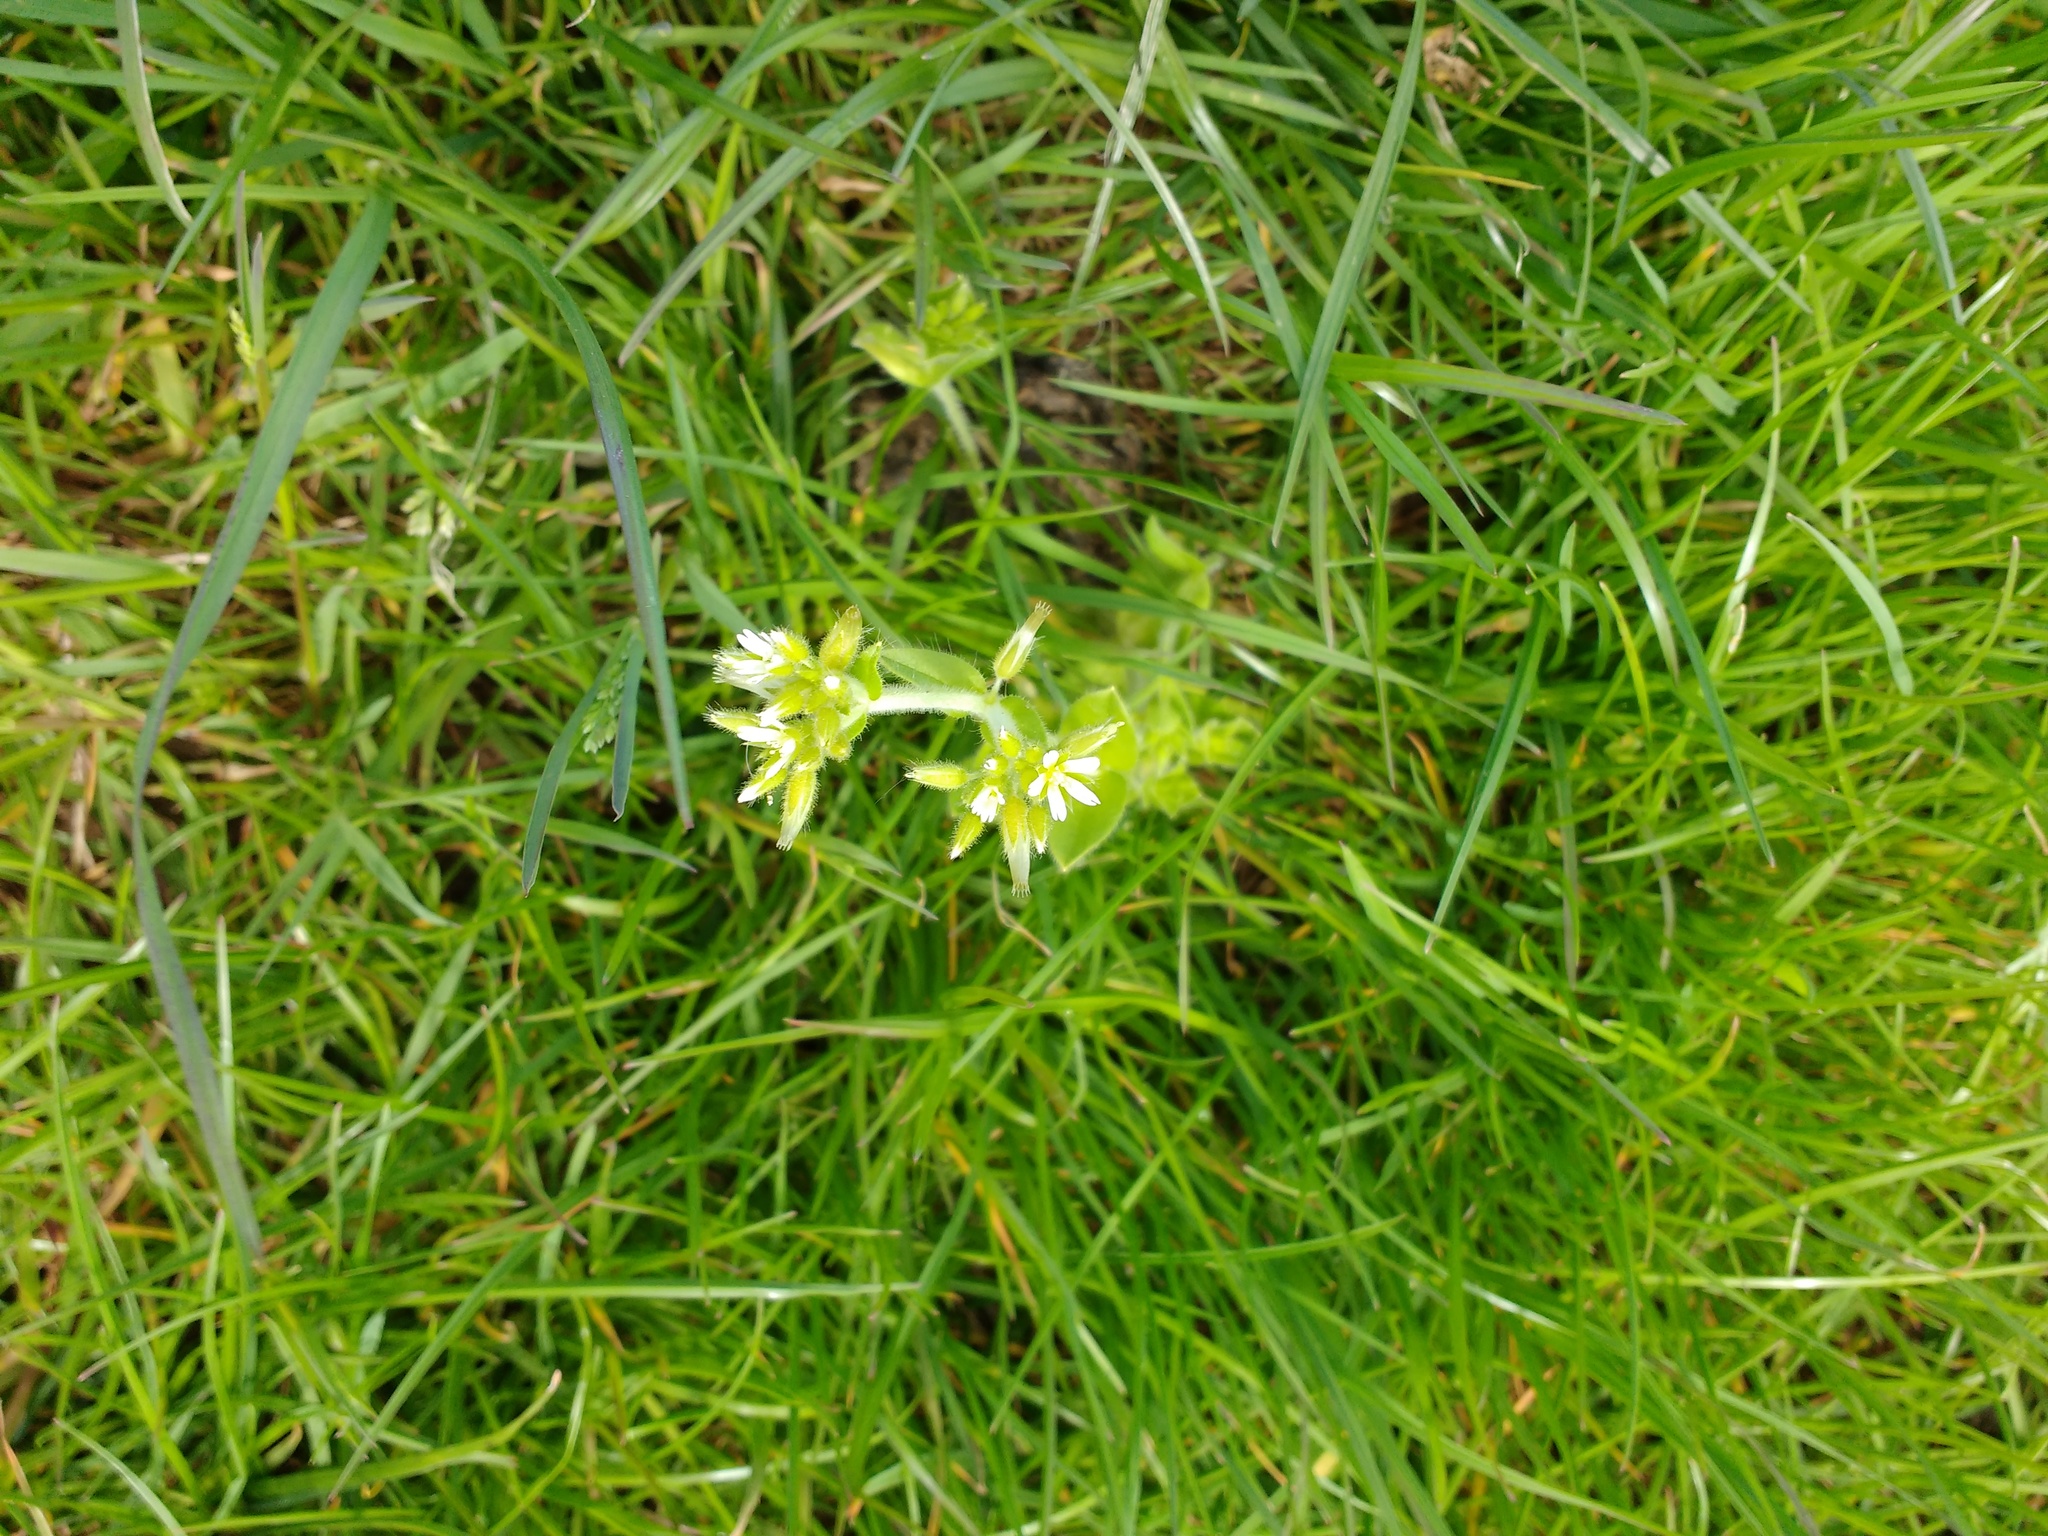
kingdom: Plantae
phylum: Tracheophyta
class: Magnoliopsida
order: Caryophyllales
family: Caryophyllaceae
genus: Cerastium
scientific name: Cerastium glomeratum
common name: Sticky chickweed
